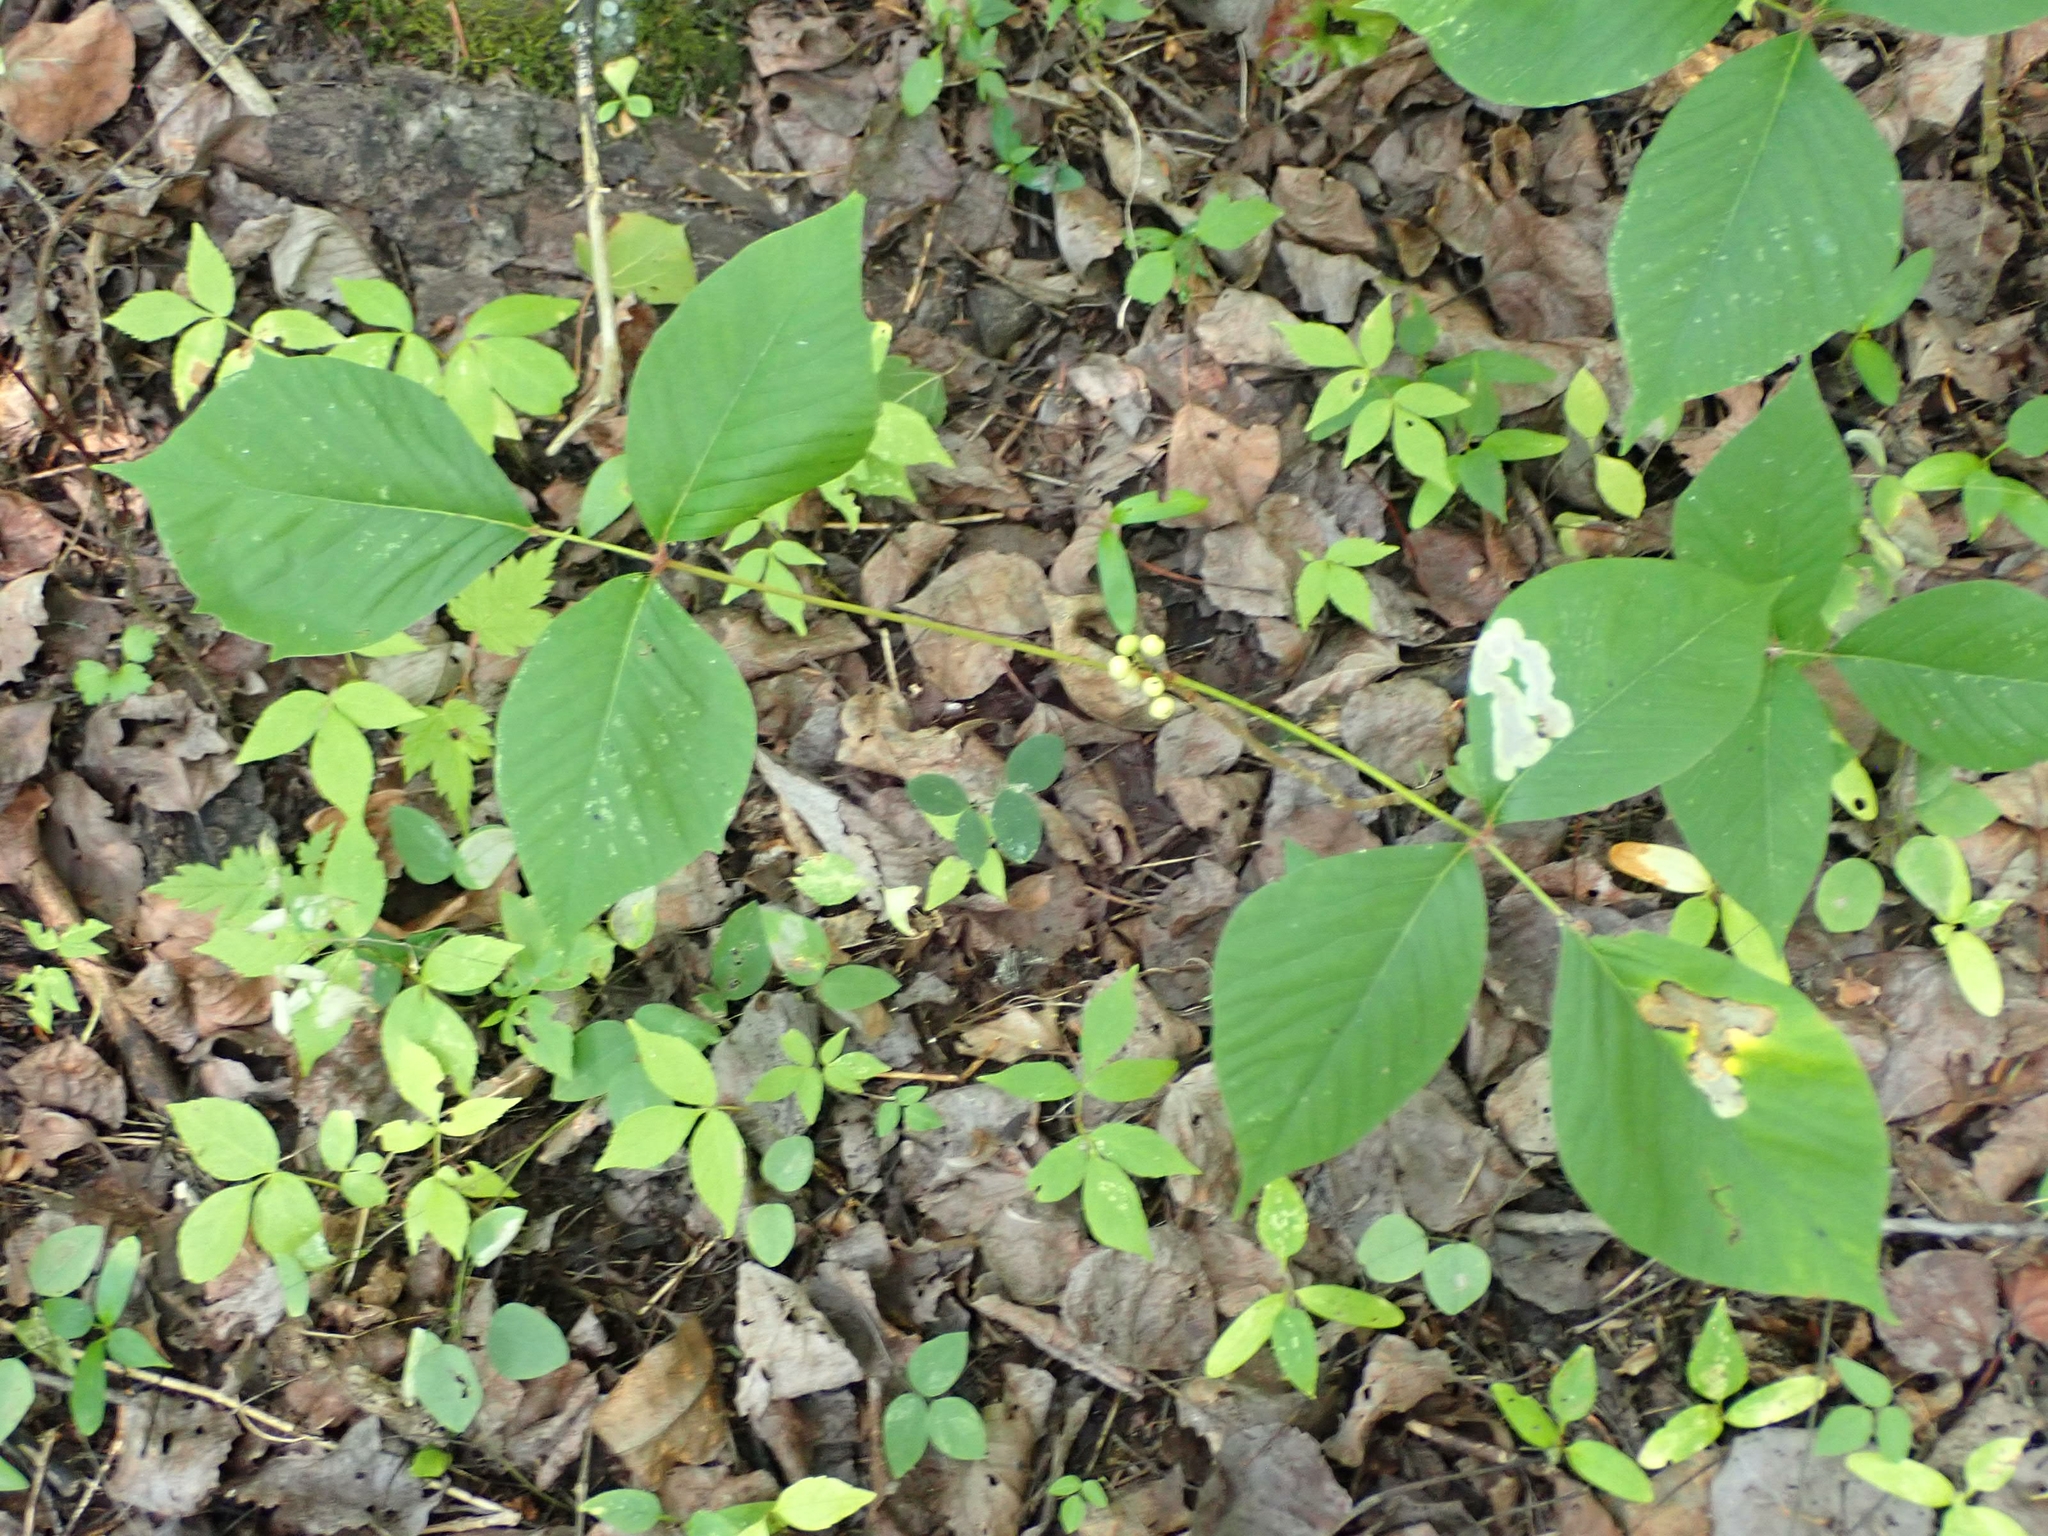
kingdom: Plantae
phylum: Tracheophyta
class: Magnoliopsida
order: Sapindales
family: Anacardiaceae
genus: Toxicodendron
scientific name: Toxicodendron rydbergii
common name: Rydberg's poison-ivy
